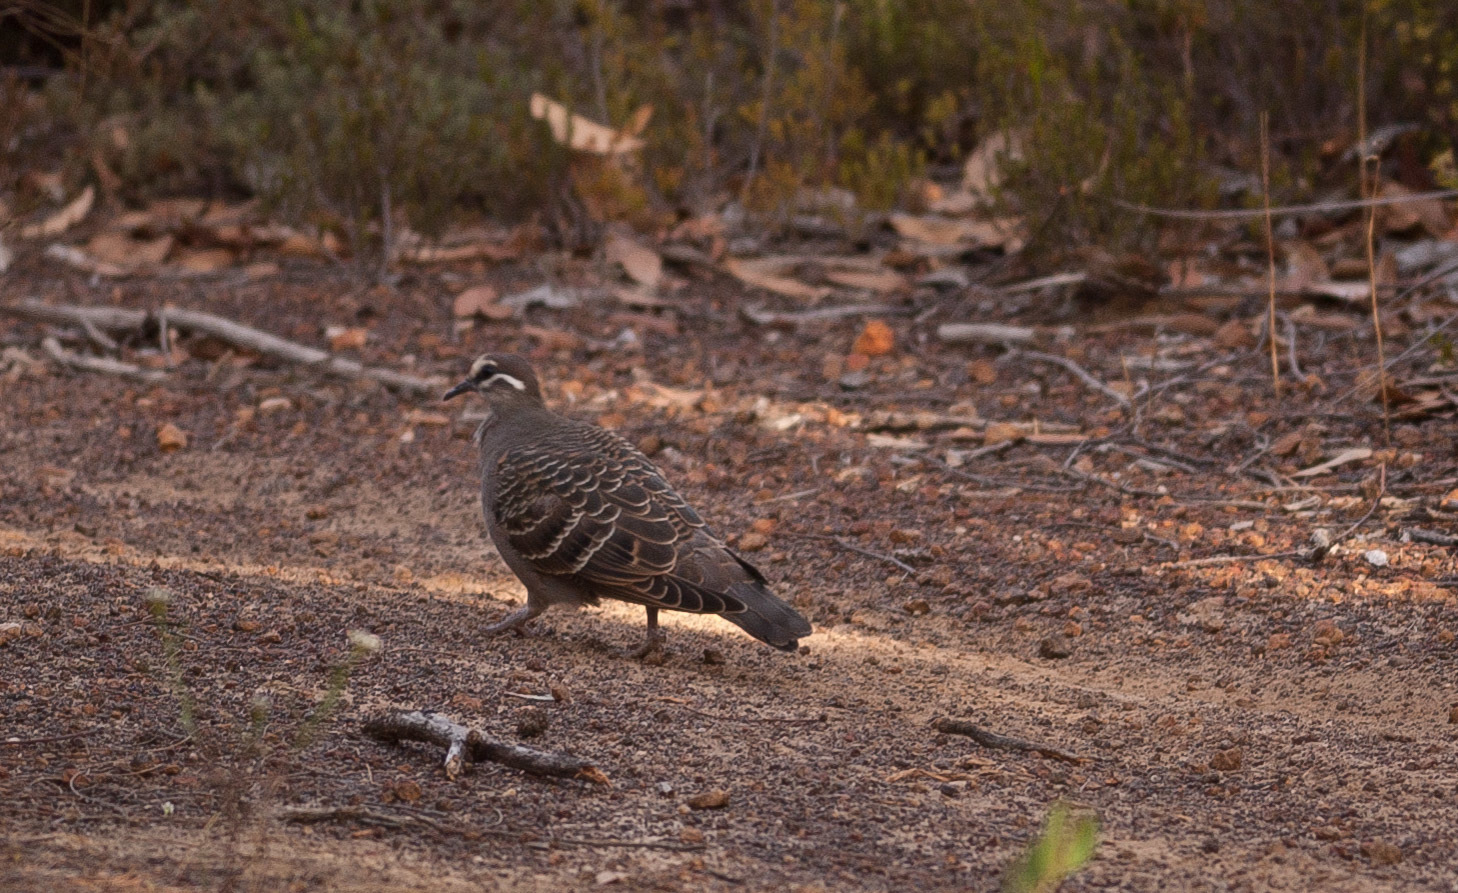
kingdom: Animalia
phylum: Chordata
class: Aves
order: Columbiformes
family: Columbidae
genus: Phaps
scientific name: Phaps chalcoptera
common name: Common bronzewing
